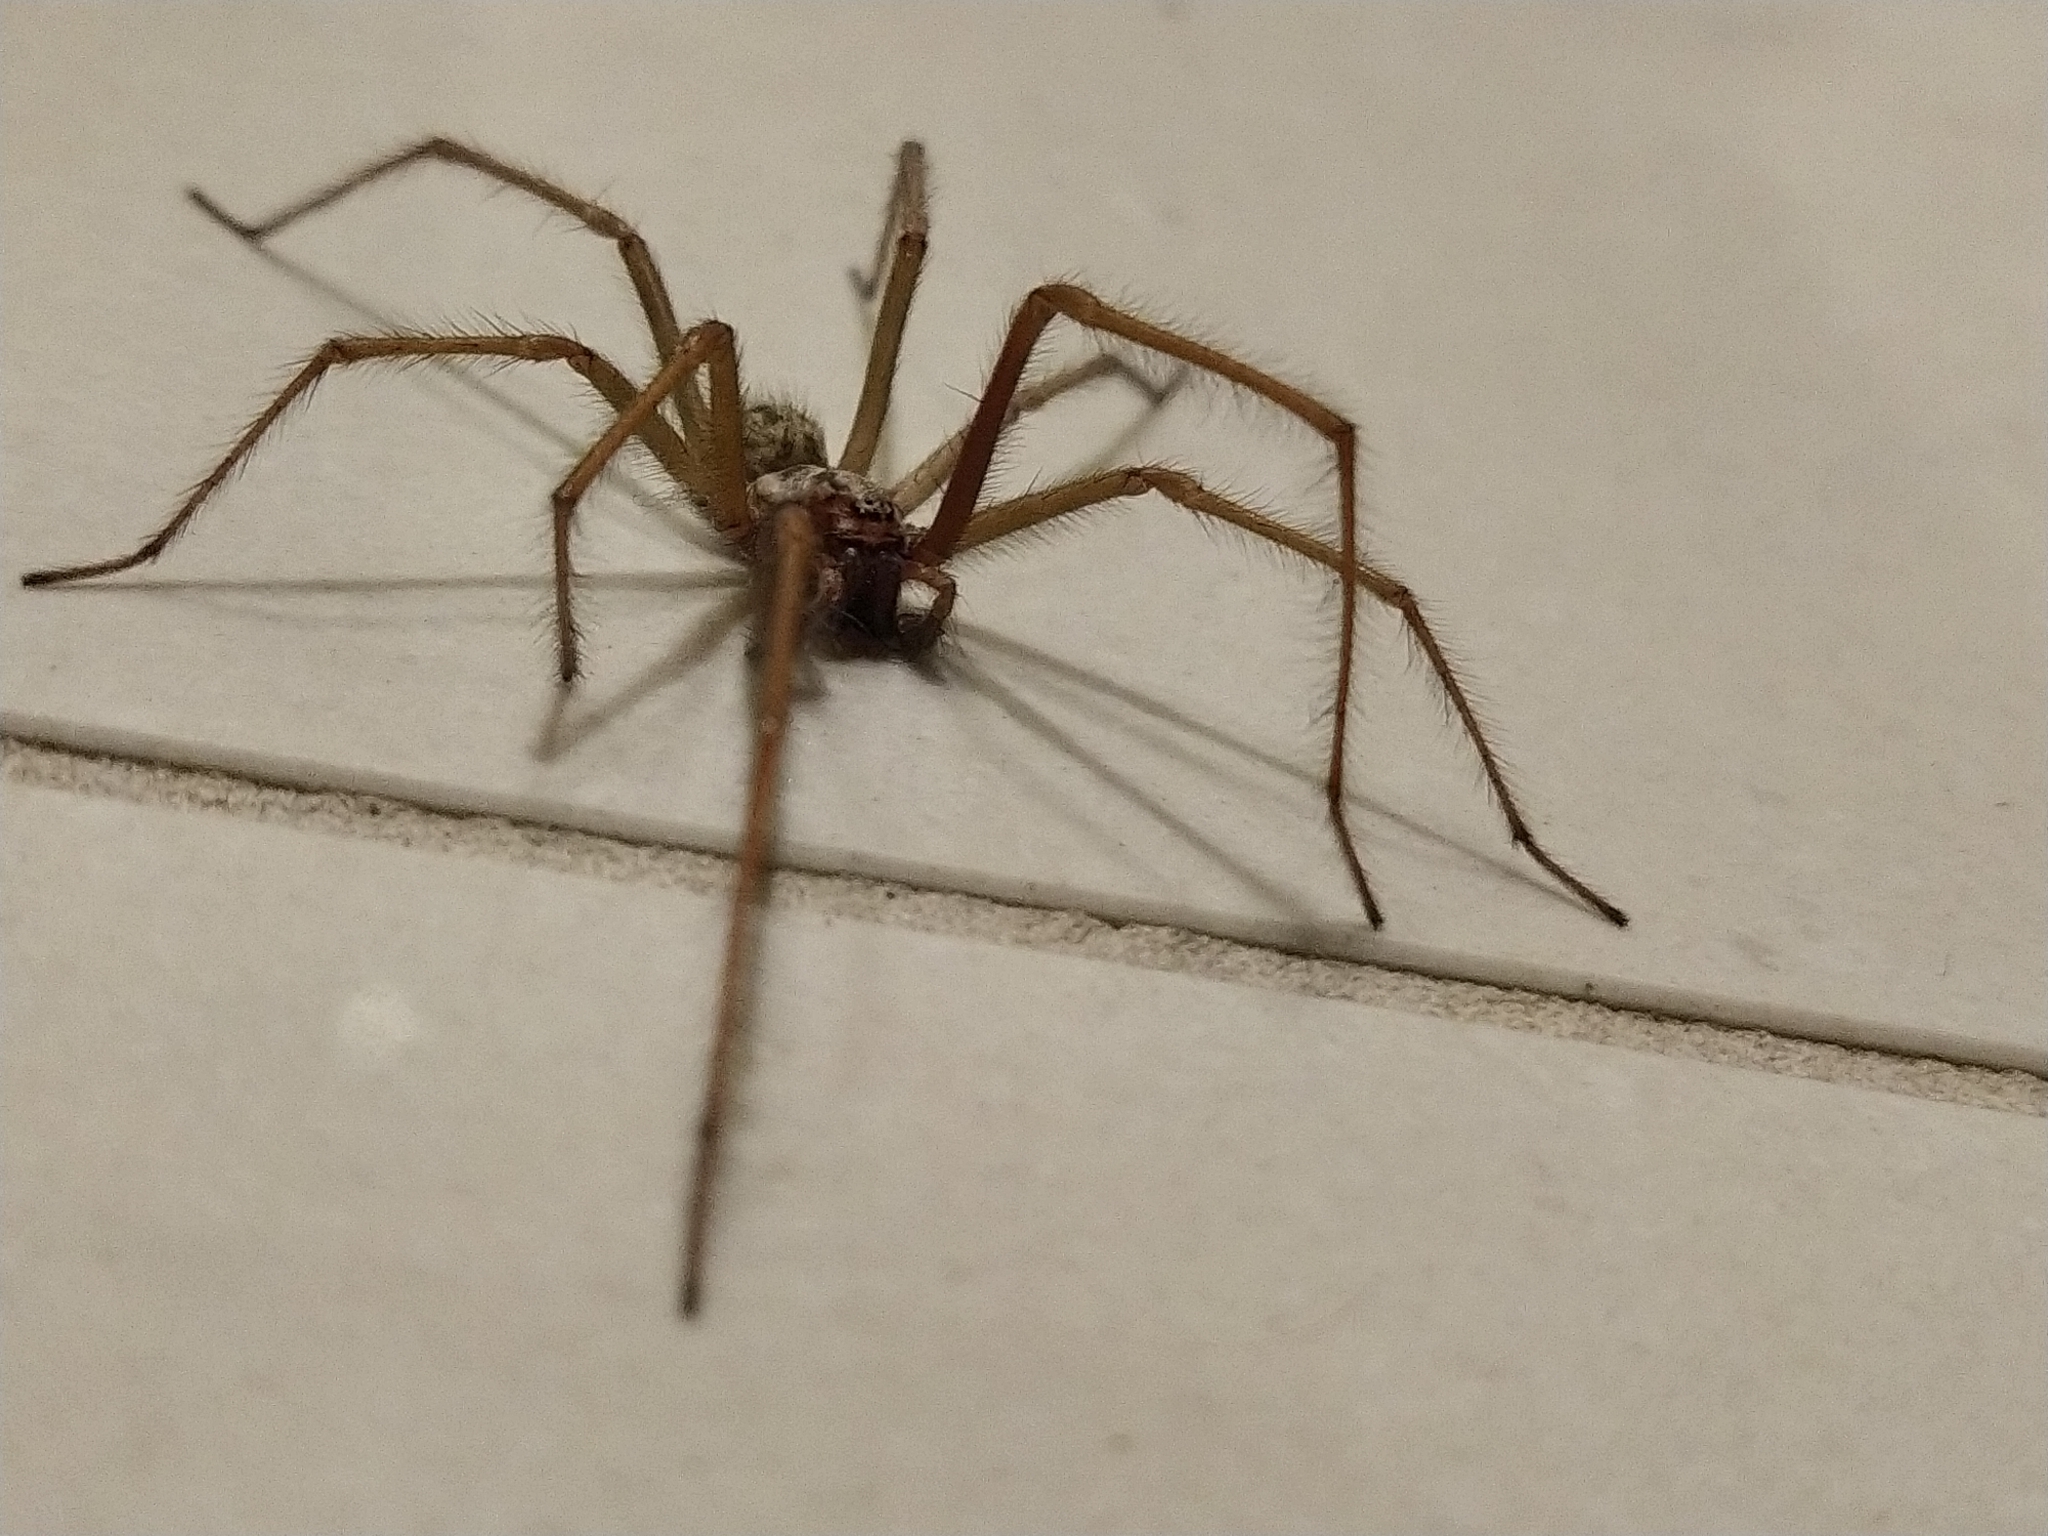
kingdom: Animalia
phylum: Arthropoda
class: Arachnida
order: Araneae
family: Agelenidae
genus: Eratigena
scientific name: Eratigena duellica
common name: Giant house spider
